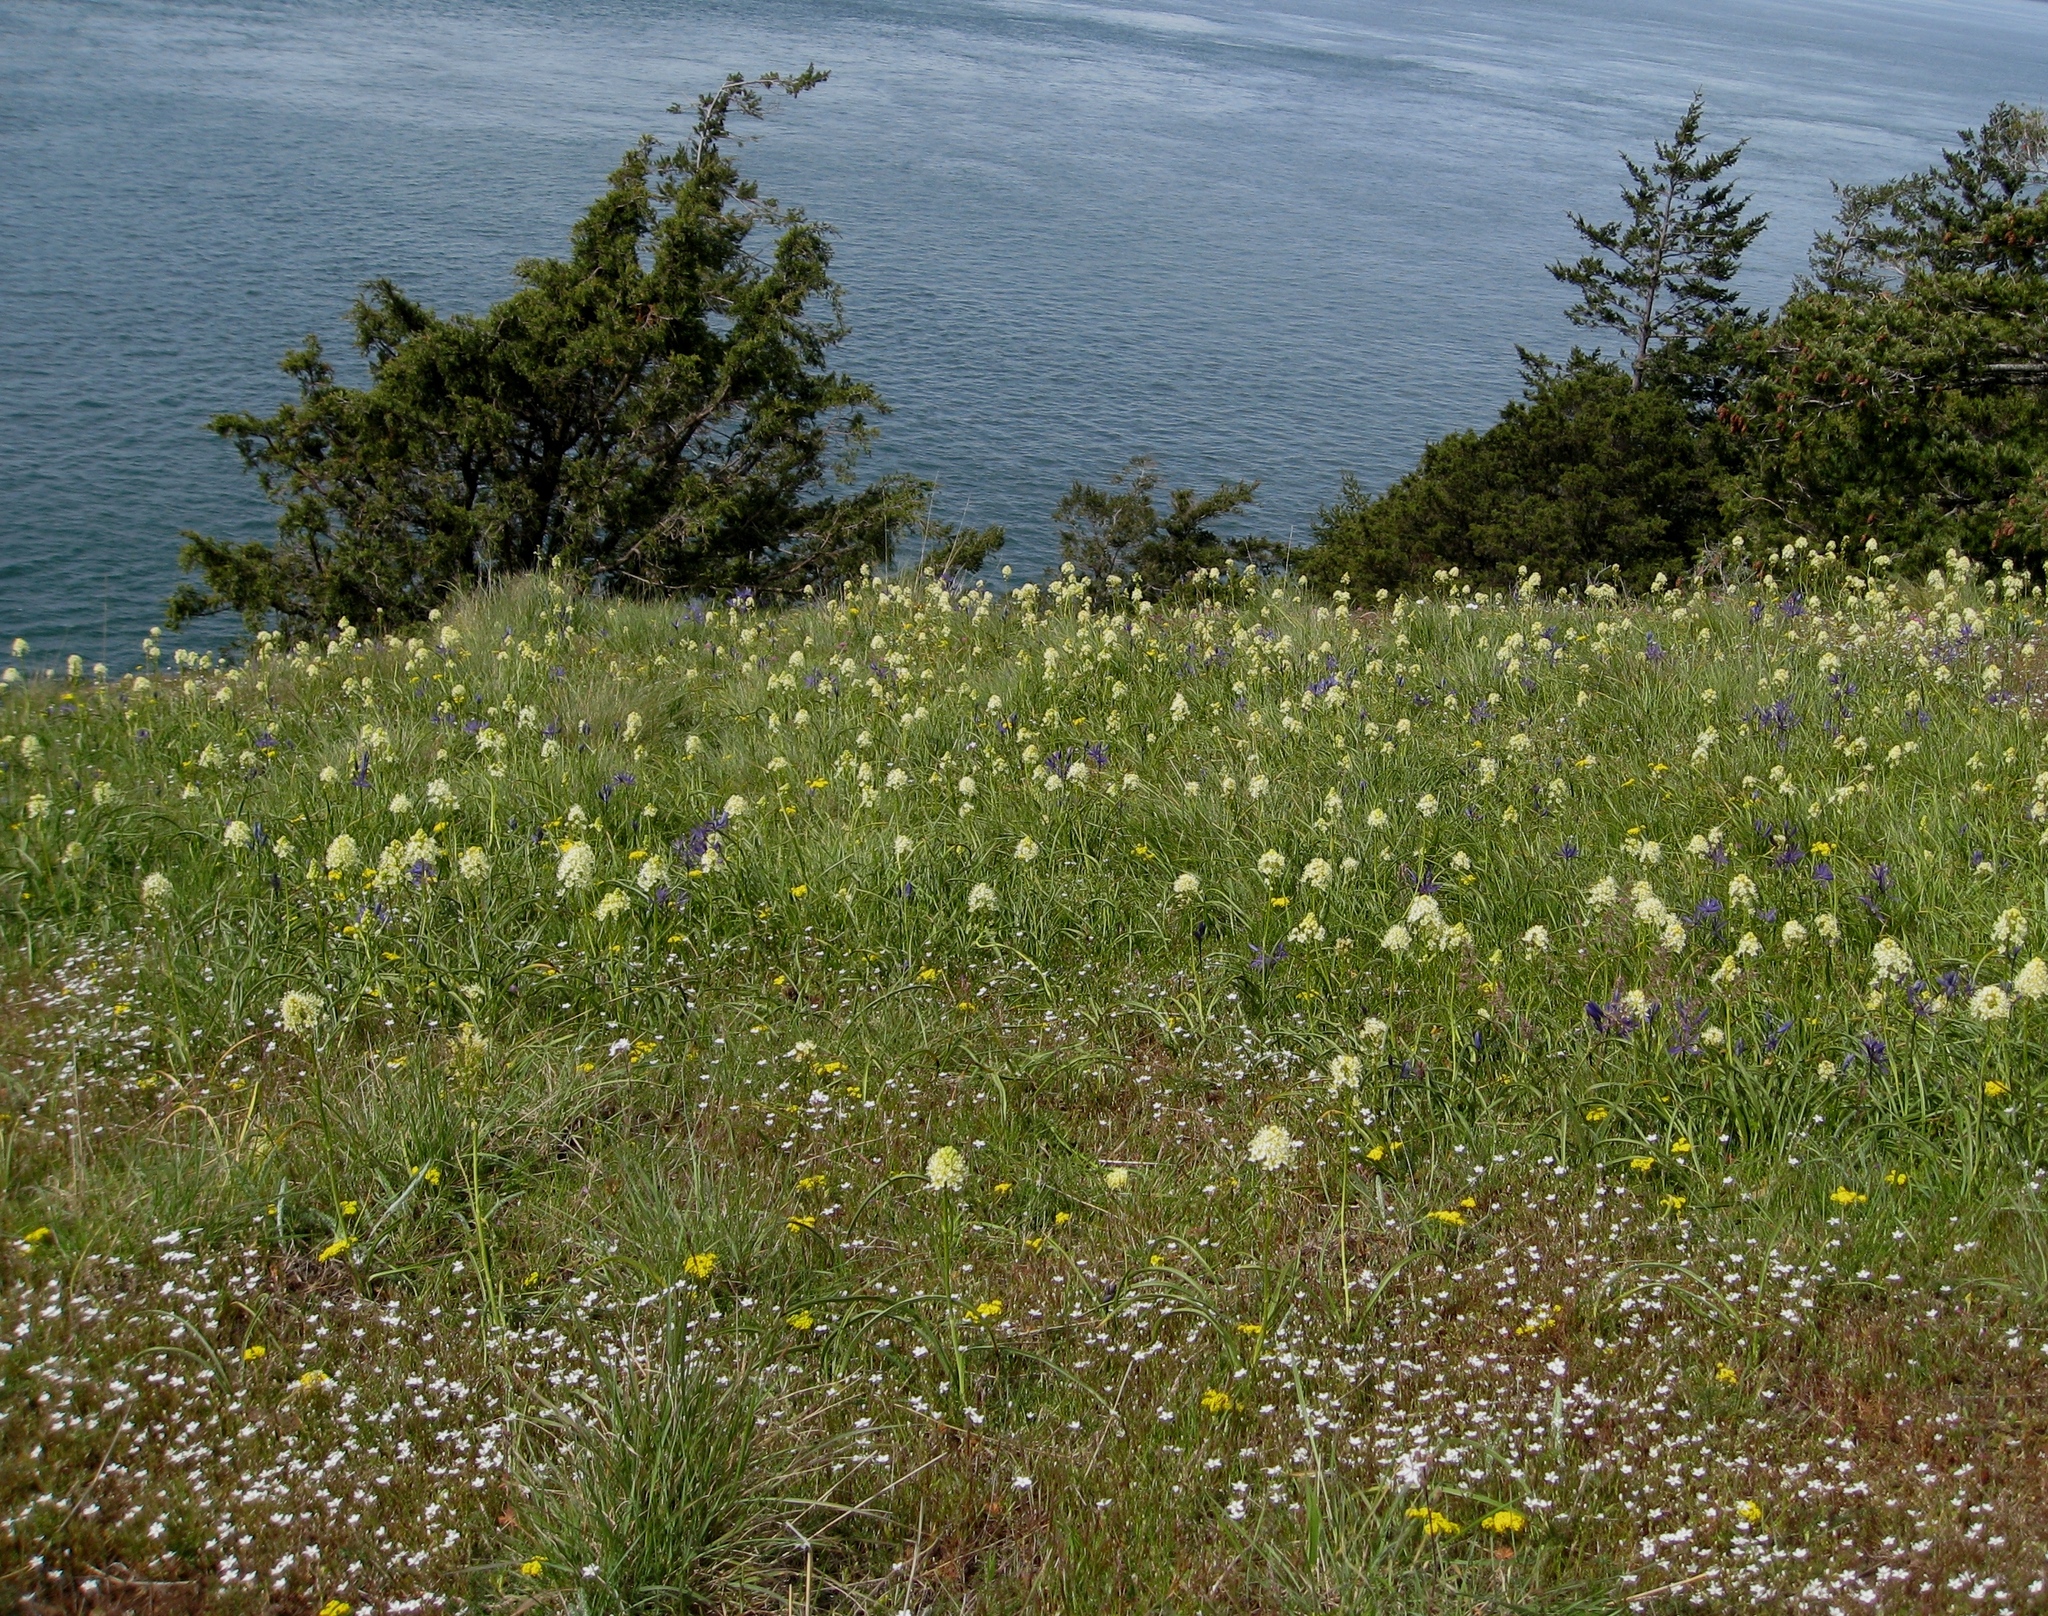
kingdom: Plantae
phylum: Tracheophyta
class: Liliopsida
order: Liliales
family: Melanthiaceae
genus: Toxicoscordion
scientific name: Toxicoscordion venenosum
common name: Meadow death camas
